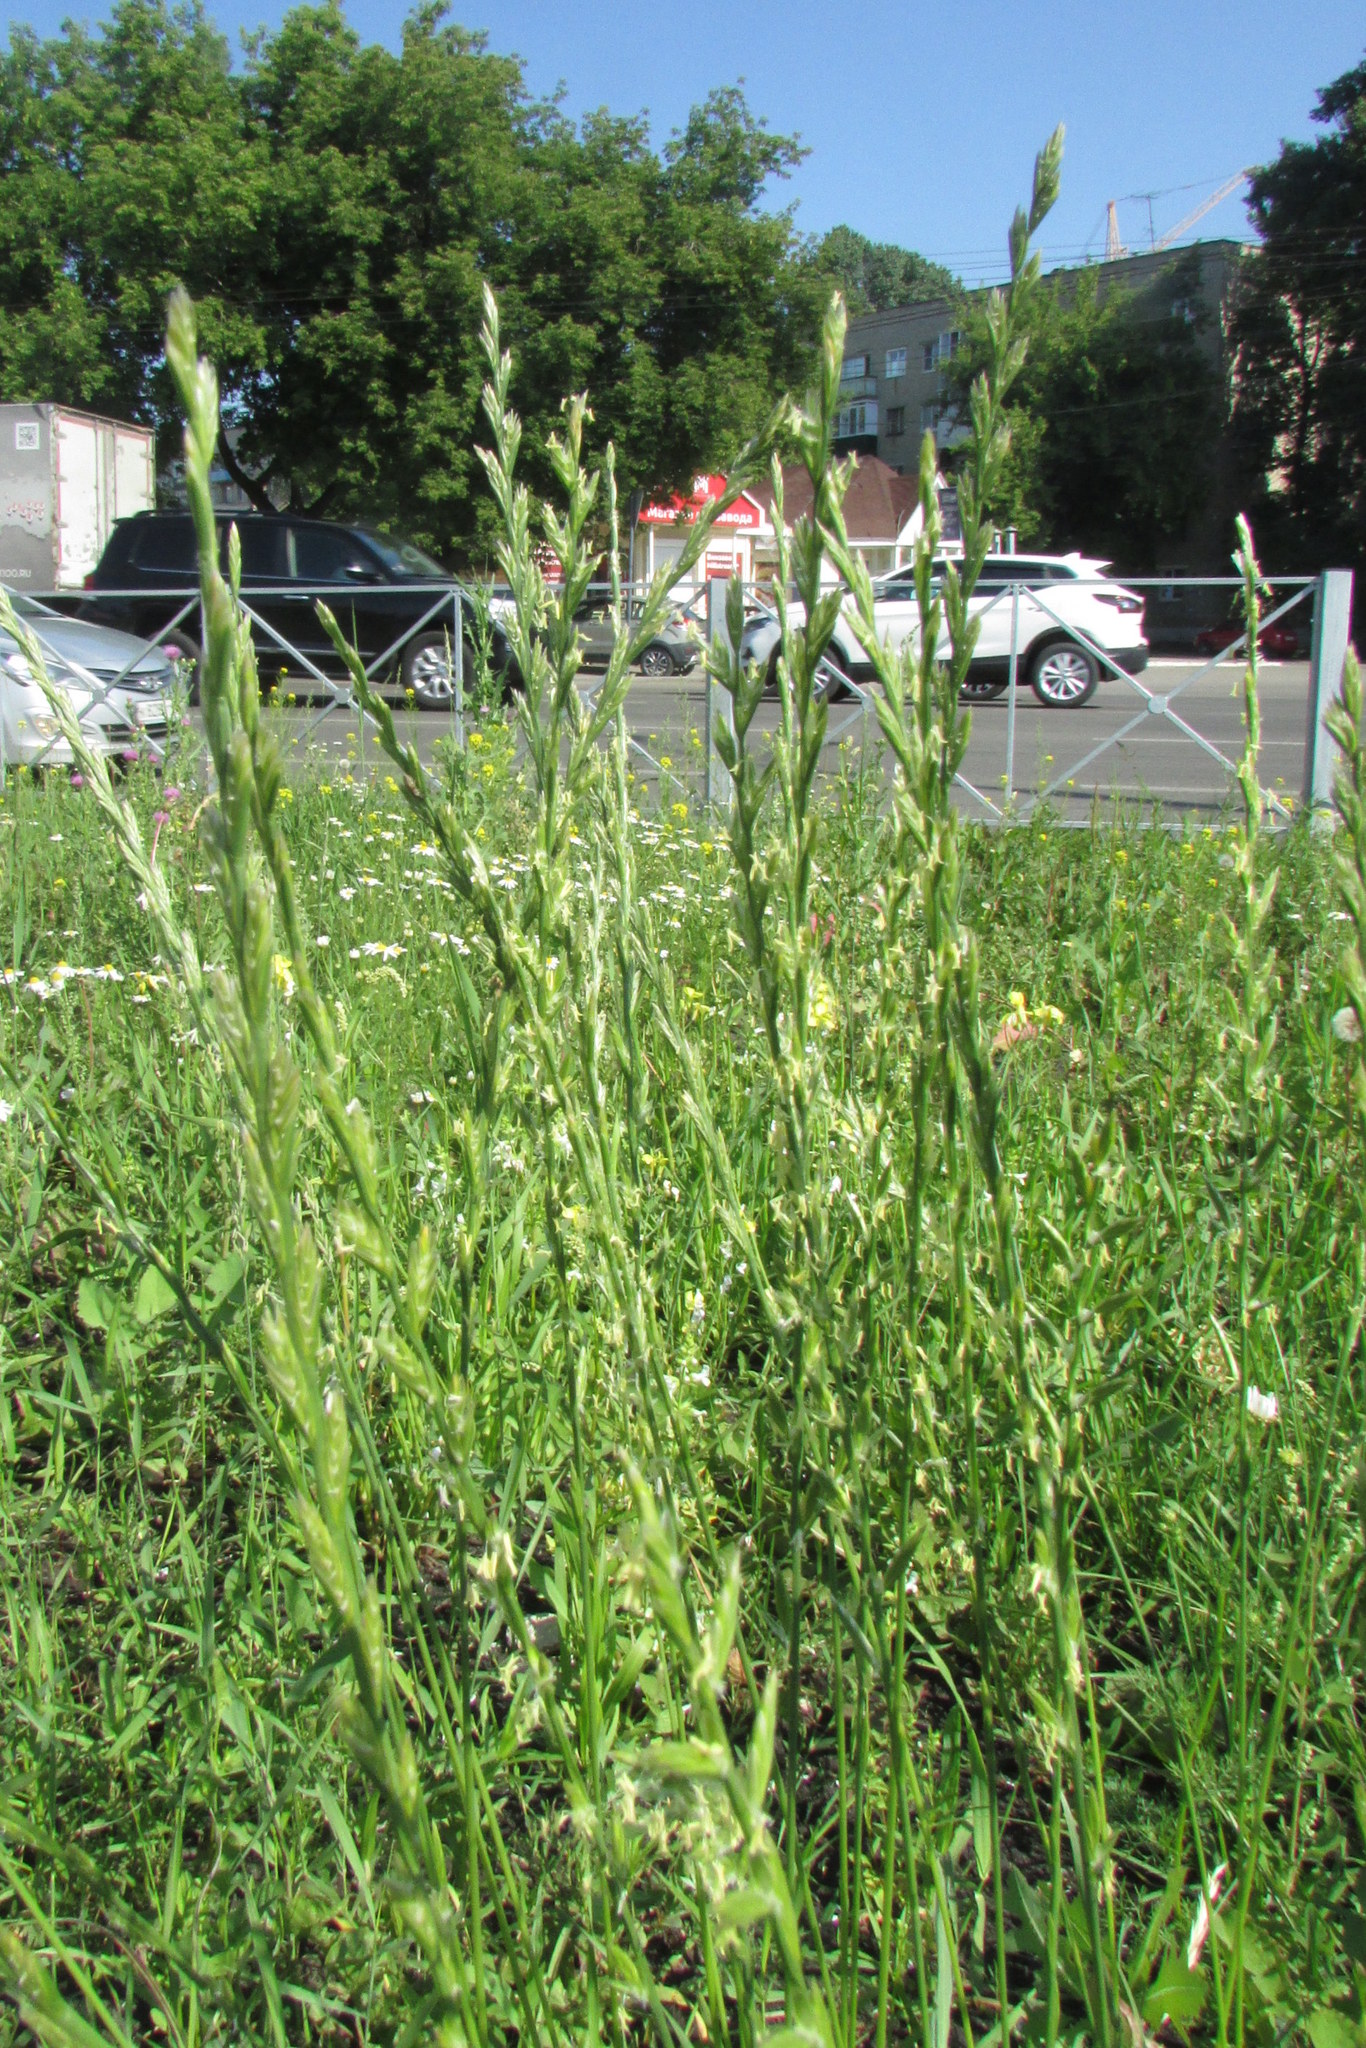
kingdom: Plantae
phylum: Tracheophyta
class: Liliopsida
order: Poales
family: Poaceae
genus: Lolium
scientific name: Lolium perenne
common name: Perennial ryegrass
